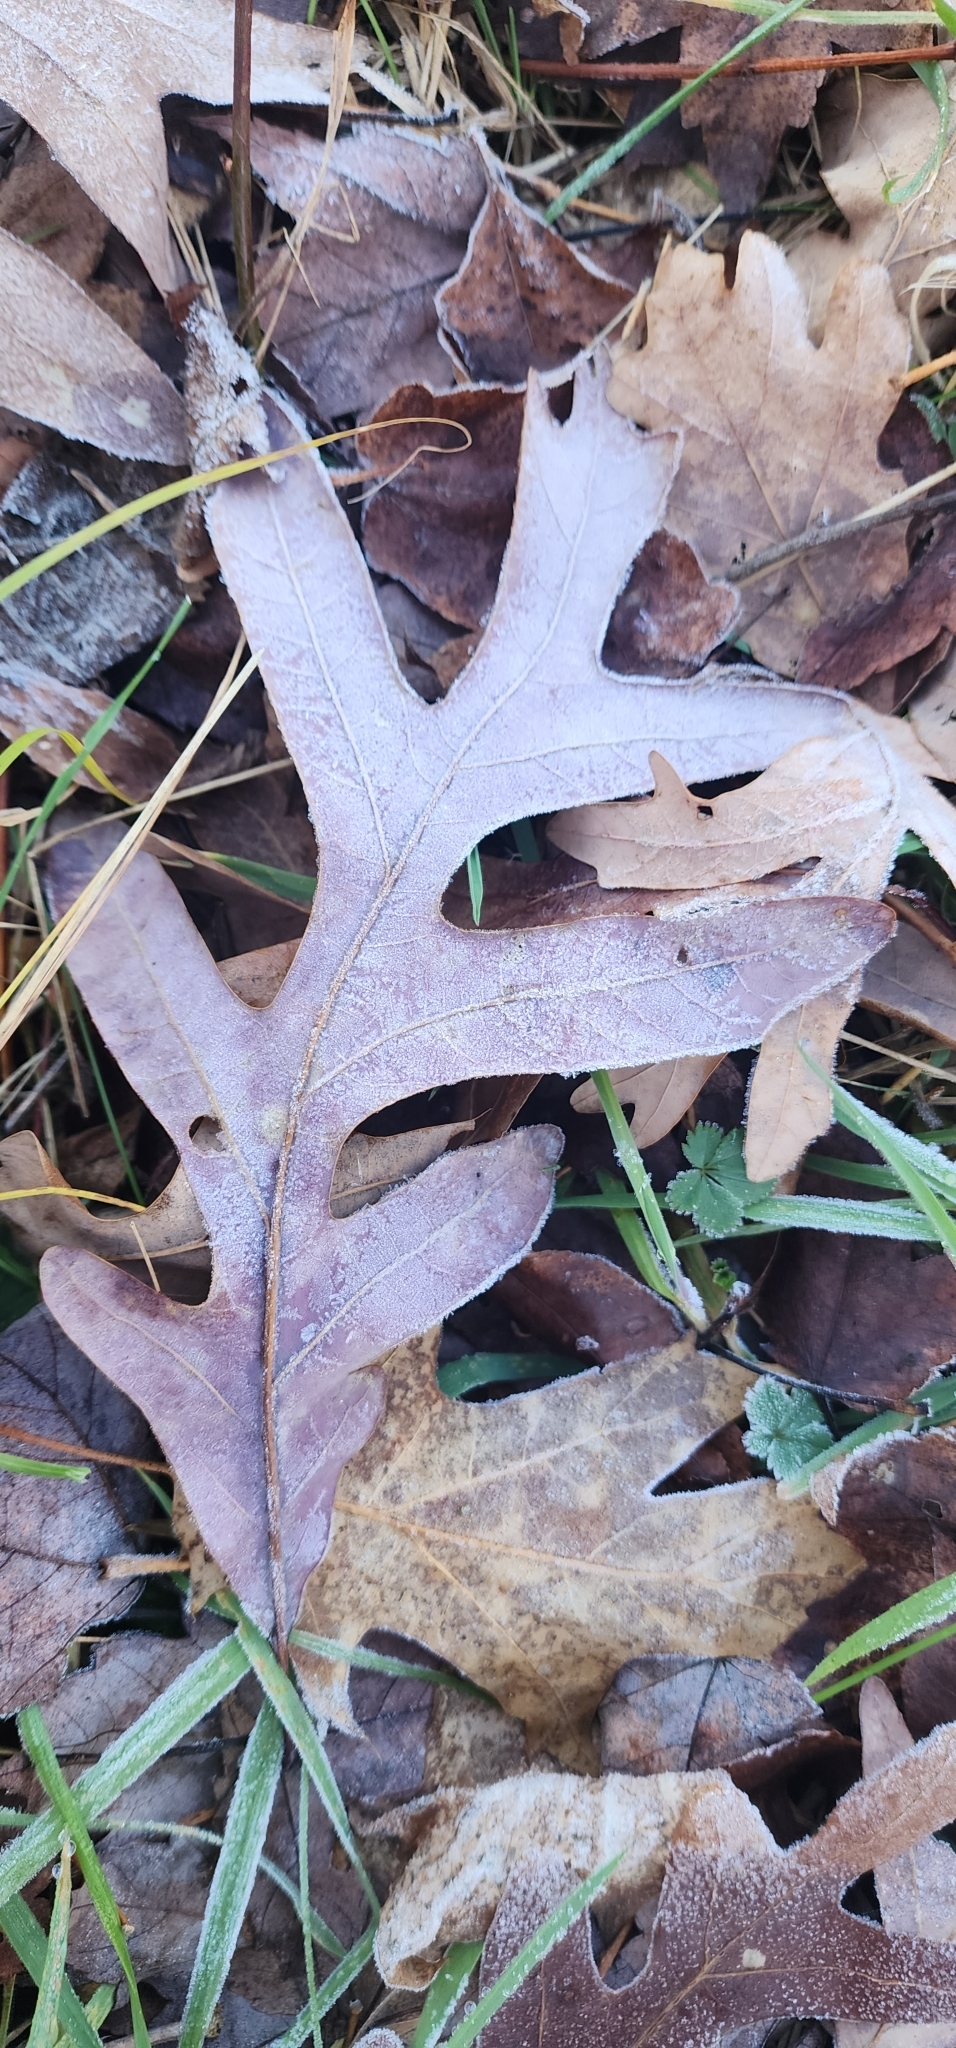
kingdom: Plantae
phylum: Tracheophyta
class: Magnoliopsida
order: Fagales
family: Fagaceae
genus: Quercus
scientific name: Quercus alba
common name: White oak
